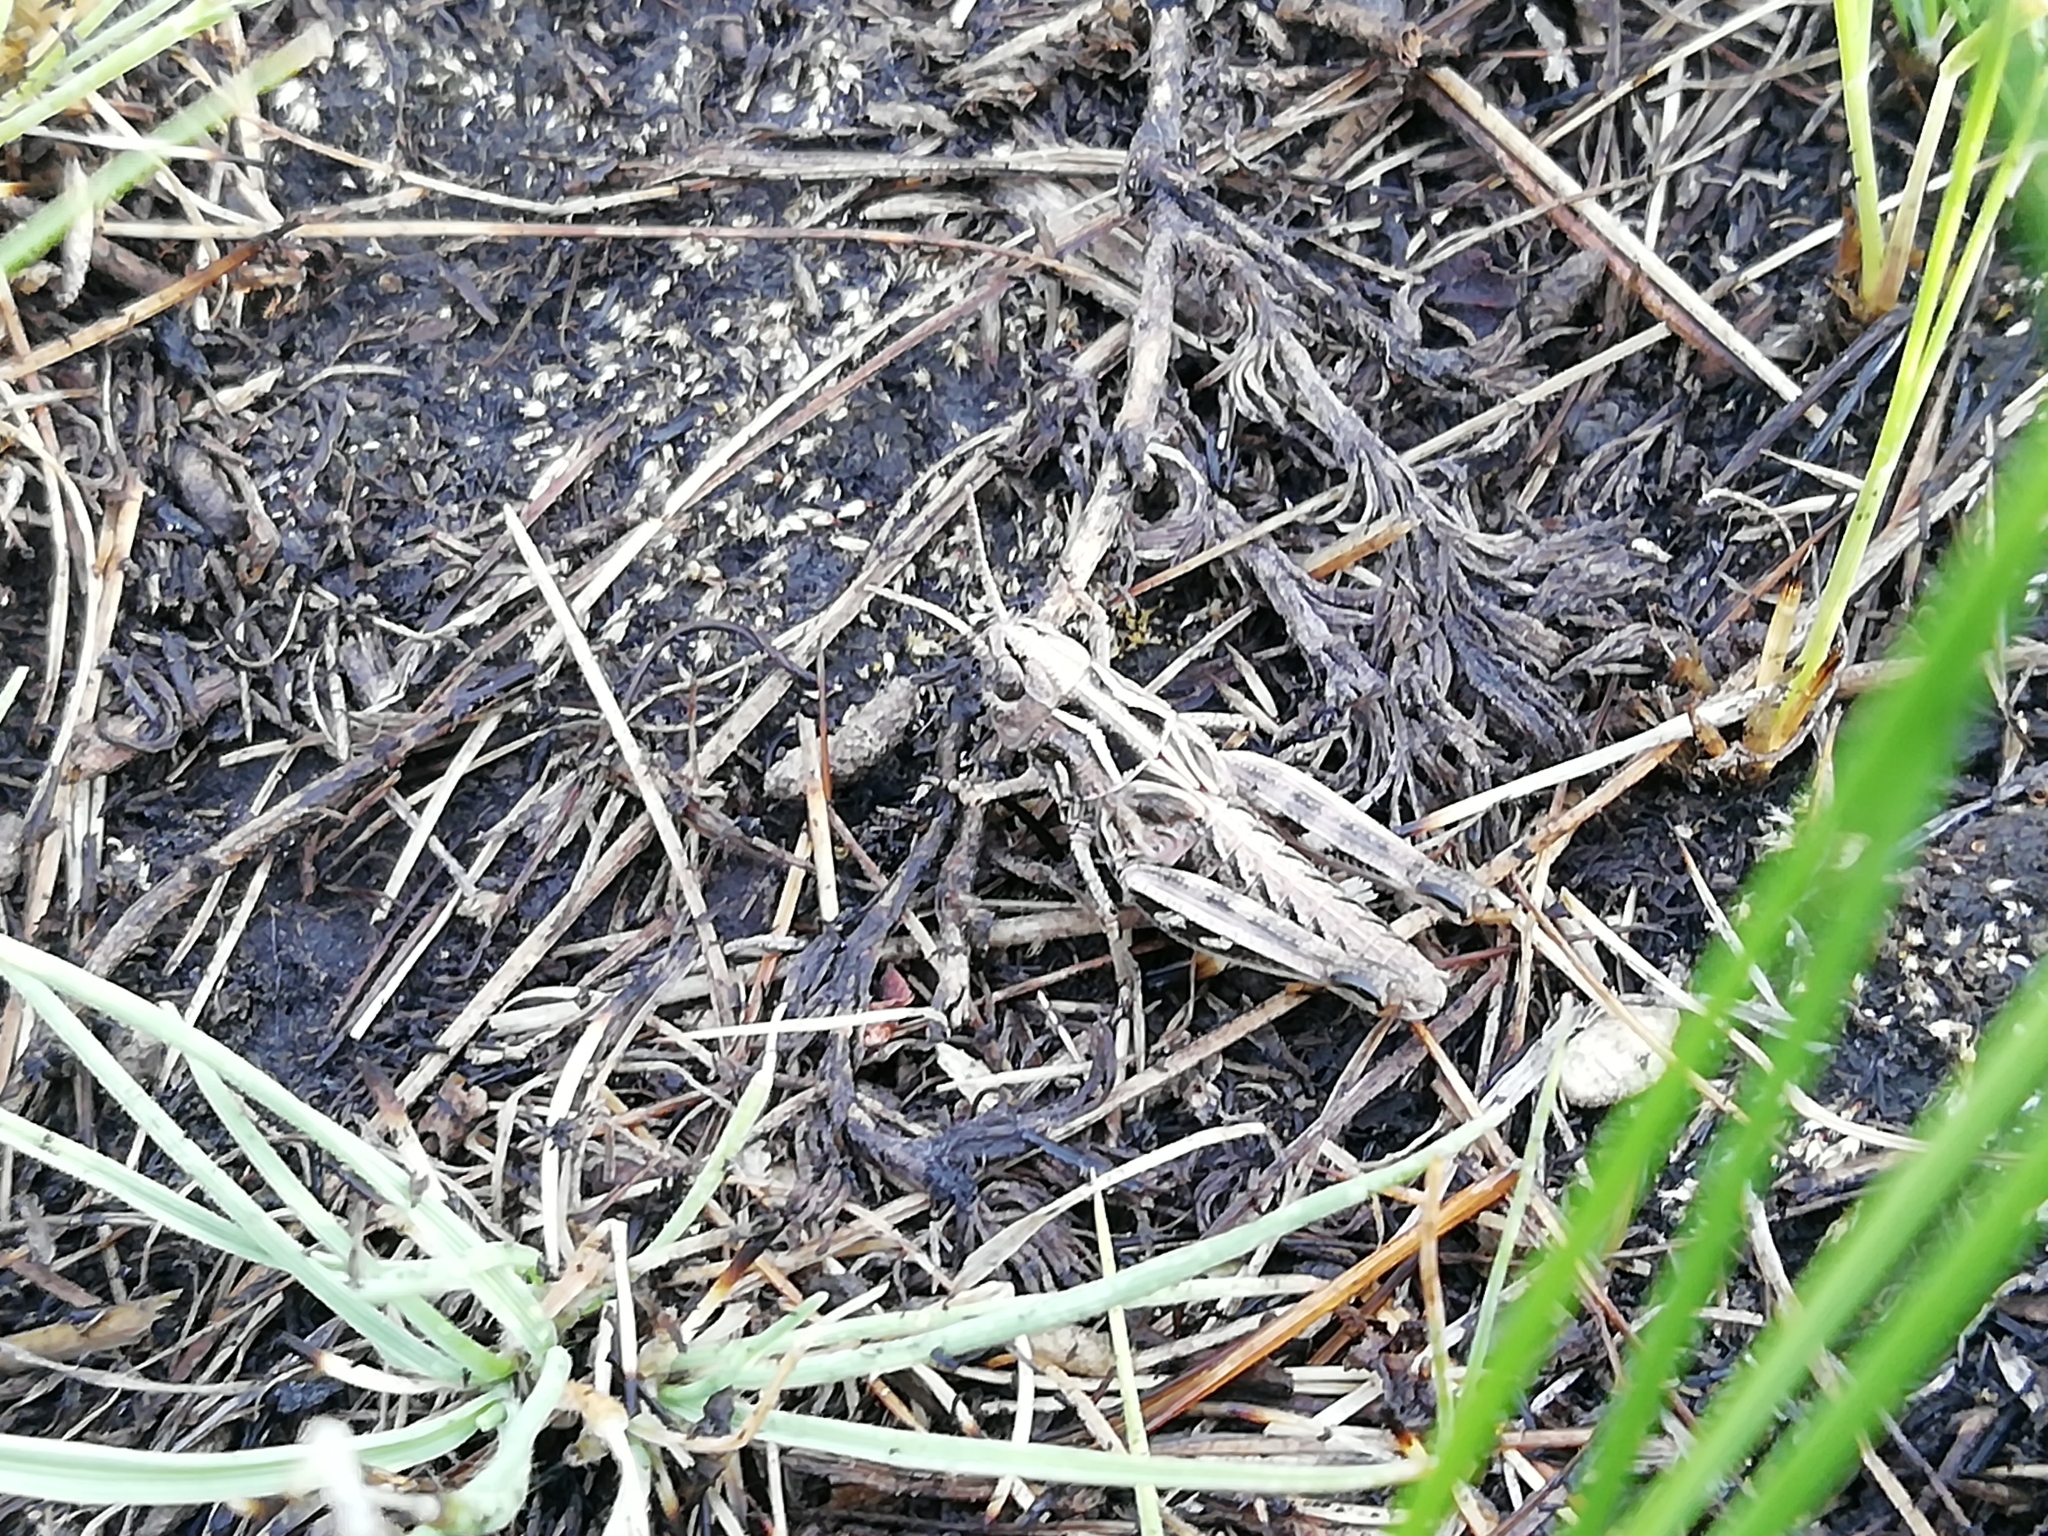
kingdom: Animalia
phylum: Arthropoda
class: Insecta
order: Orthoptera
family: Acrididae
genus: Arcyptera
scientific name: Arcyptera microptera
